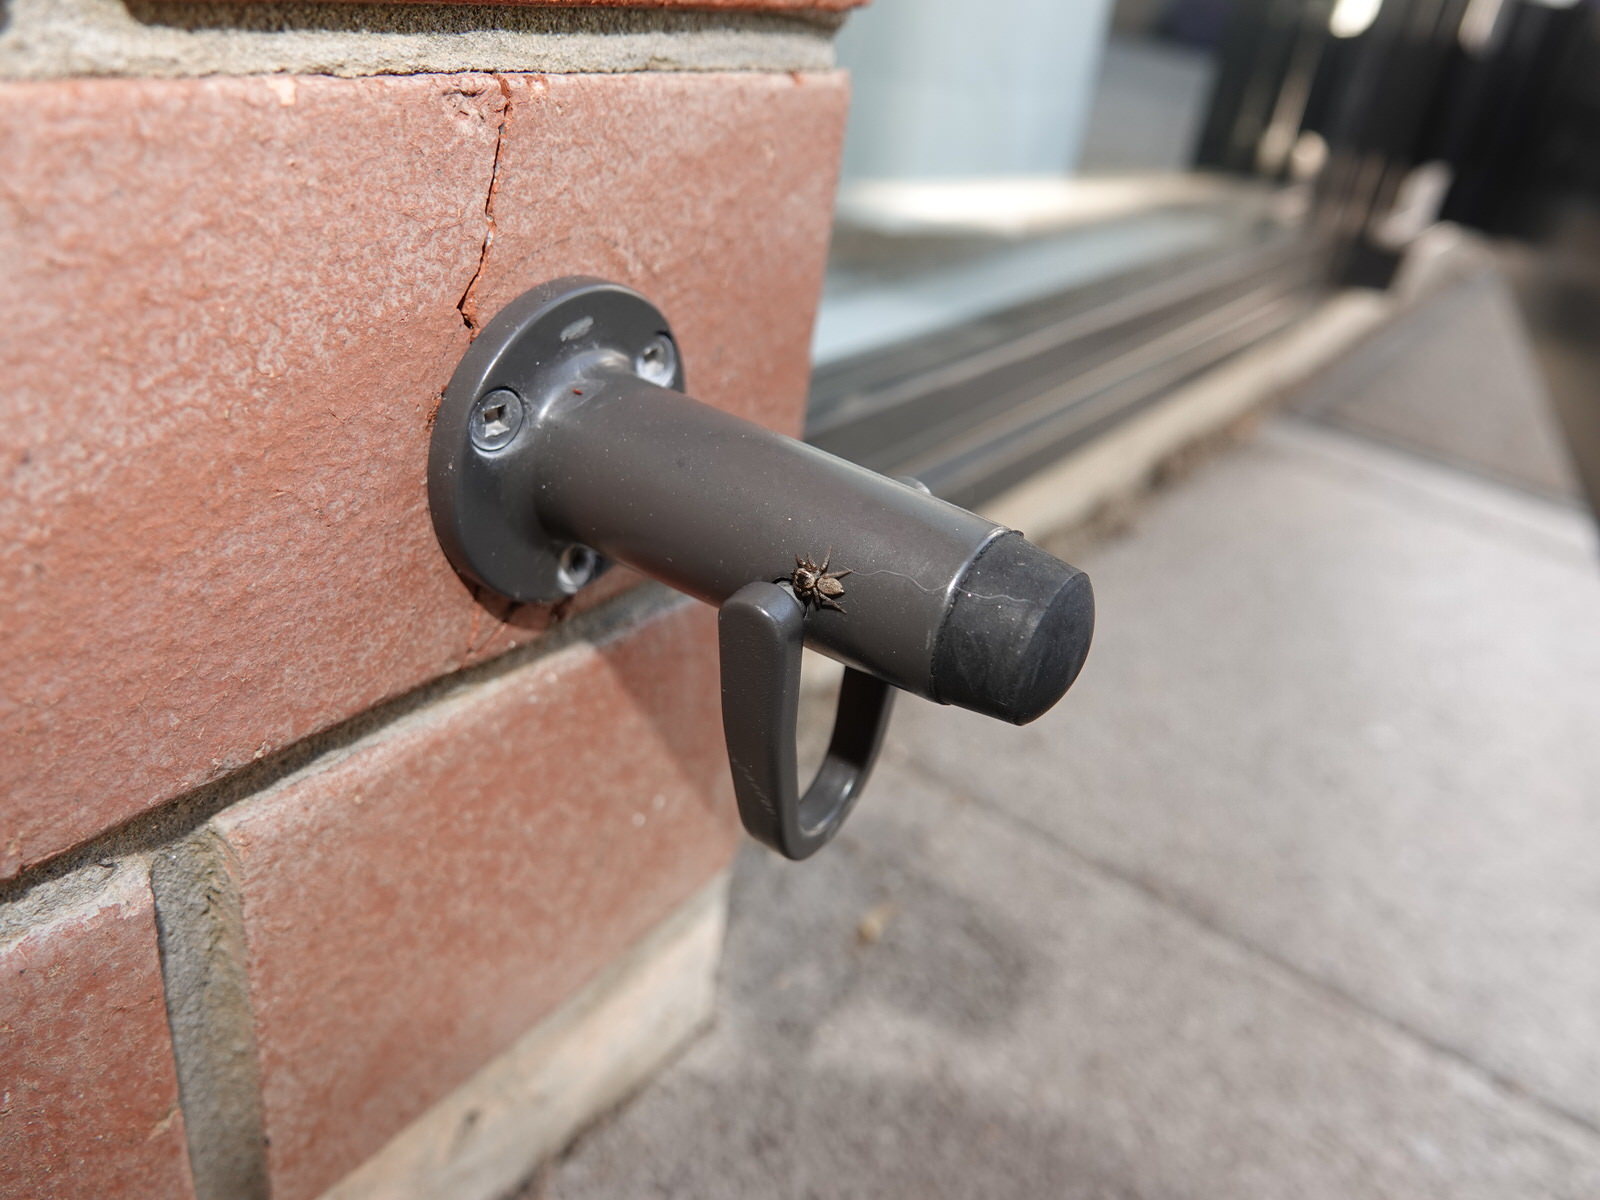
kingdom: Animalia
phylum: Arthropoda
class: Arachnida
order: Araneae
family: Salticidae
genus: Maratus
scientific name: Maratus griseus
